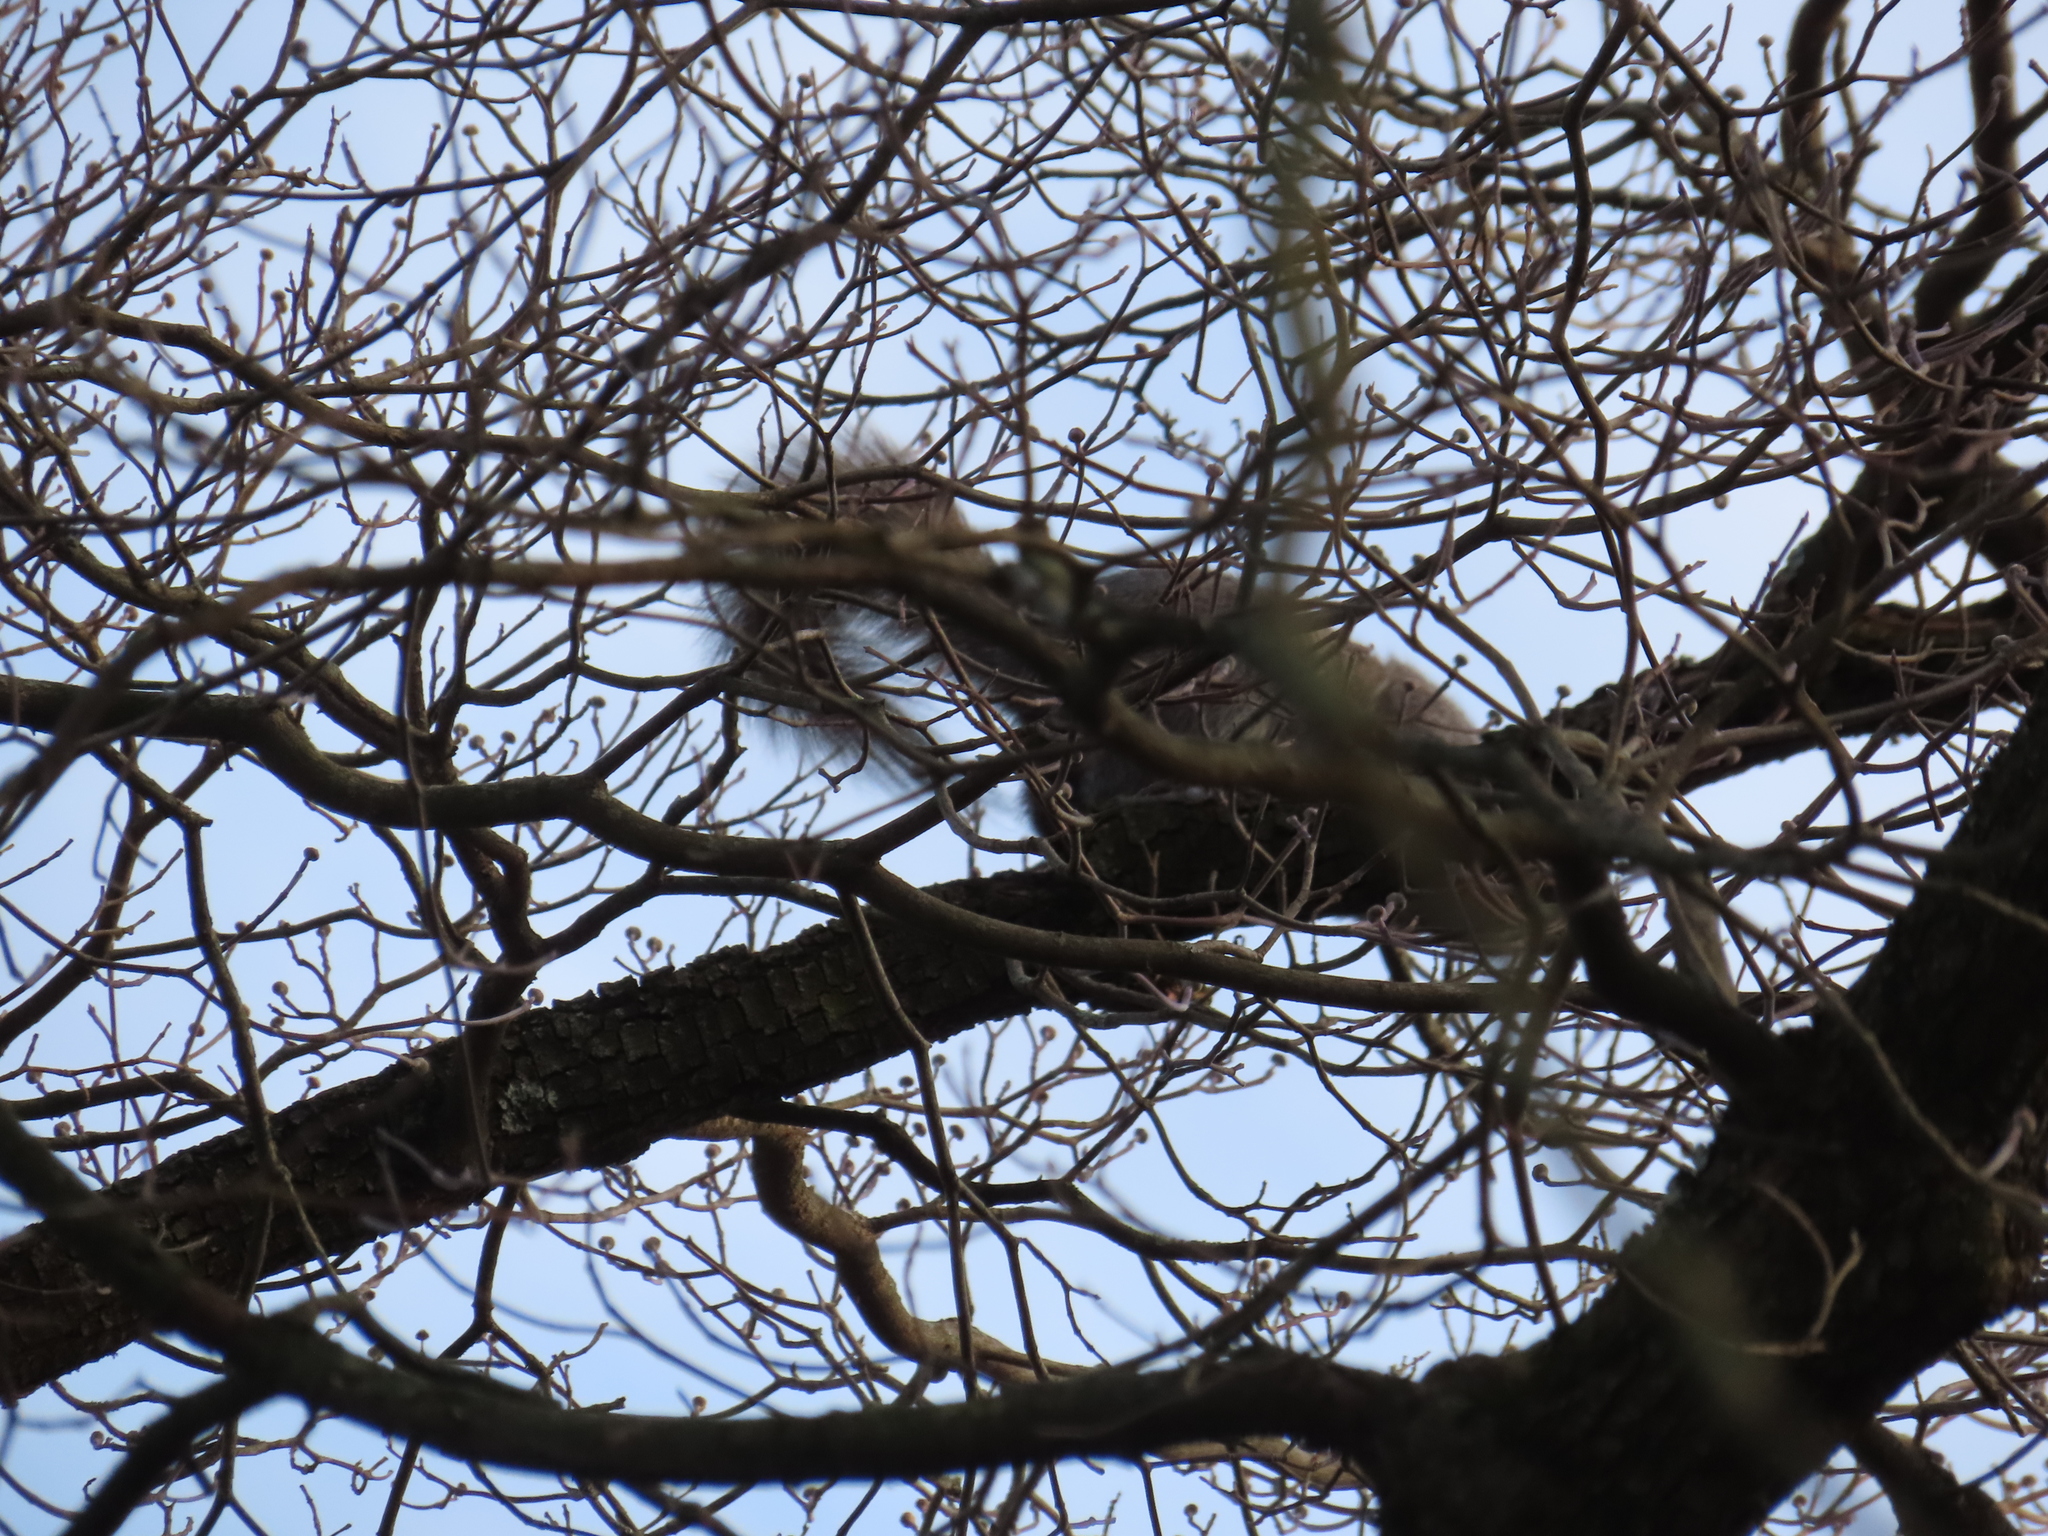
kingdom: Animalia
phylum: Chordata
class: Mammalia
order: Rodentia
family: Sciuridae
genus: Sciurus
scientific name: Sciurus carolinensis
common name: Eastern gray squirrel
